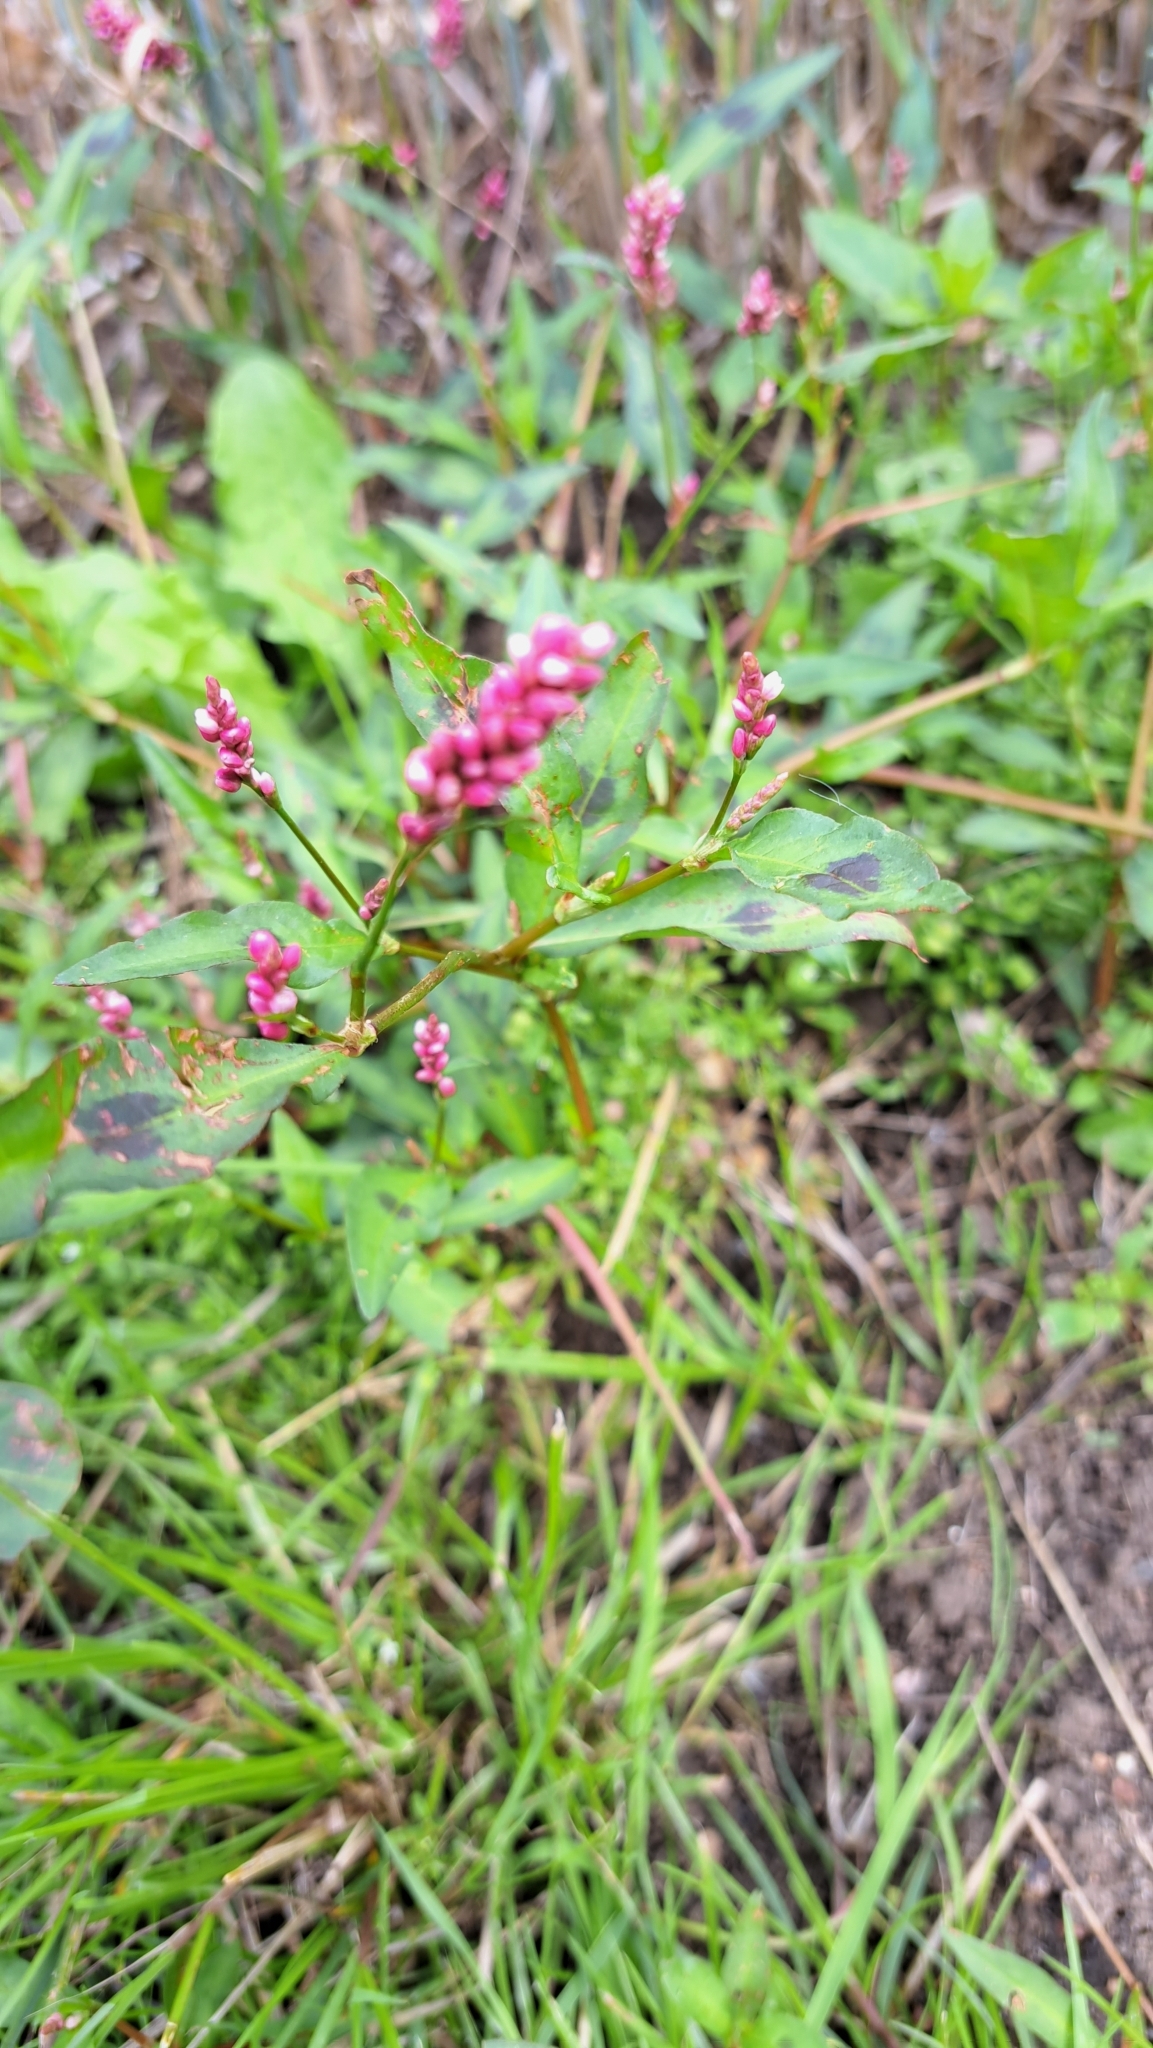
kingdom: Plantae
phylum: Tracheophyta
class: Magnoliopsida
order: Caryophyllales
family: Polygonaceae
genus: Persicaria
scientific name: Persicaria maculosa
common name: Redshank
